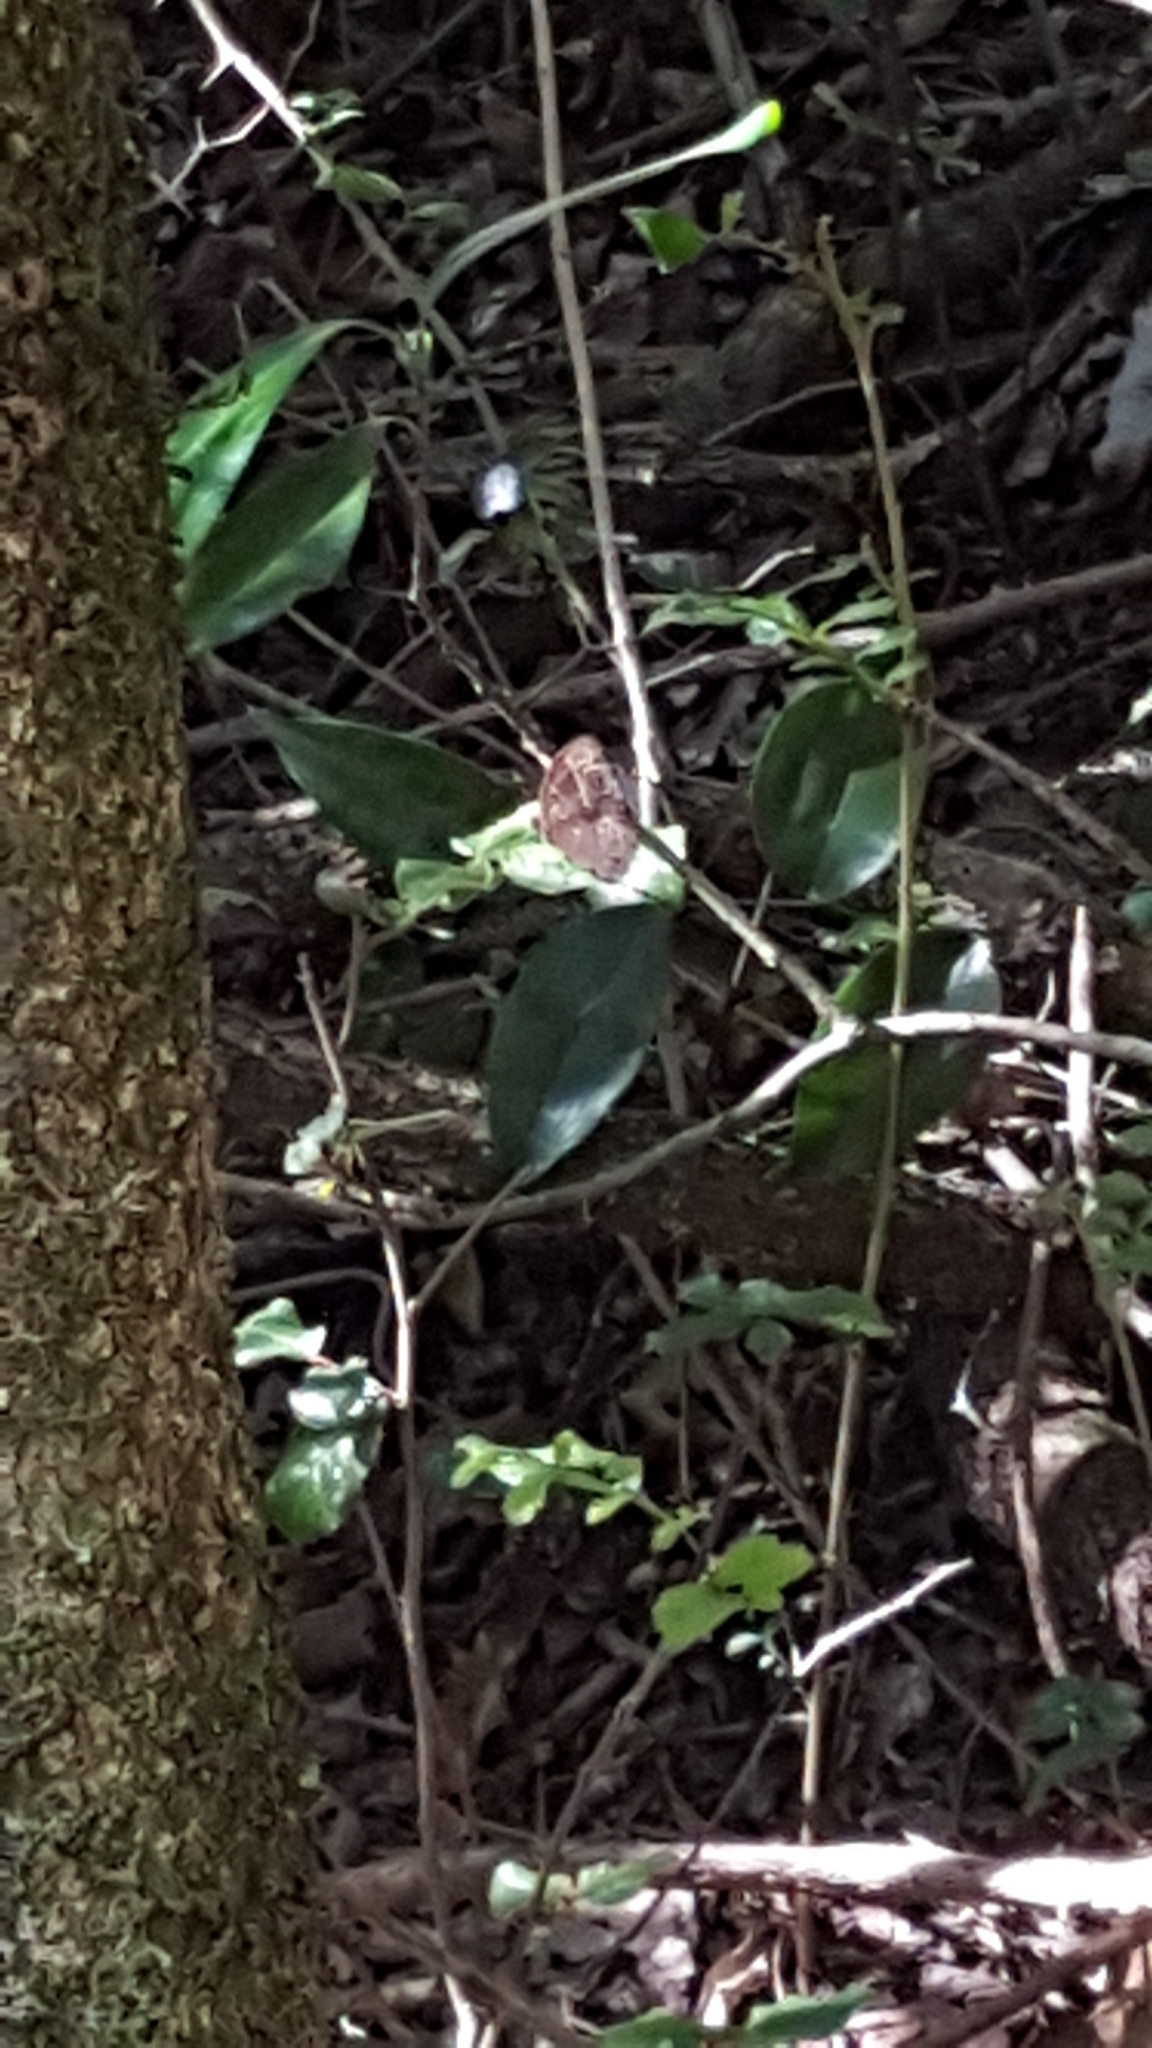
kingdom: Animalia
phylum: Arthropoda
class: Insecta
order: Lepidoptera
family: Nymphalidae
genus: Mycalesis
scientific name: Mycalesis rhacotis
